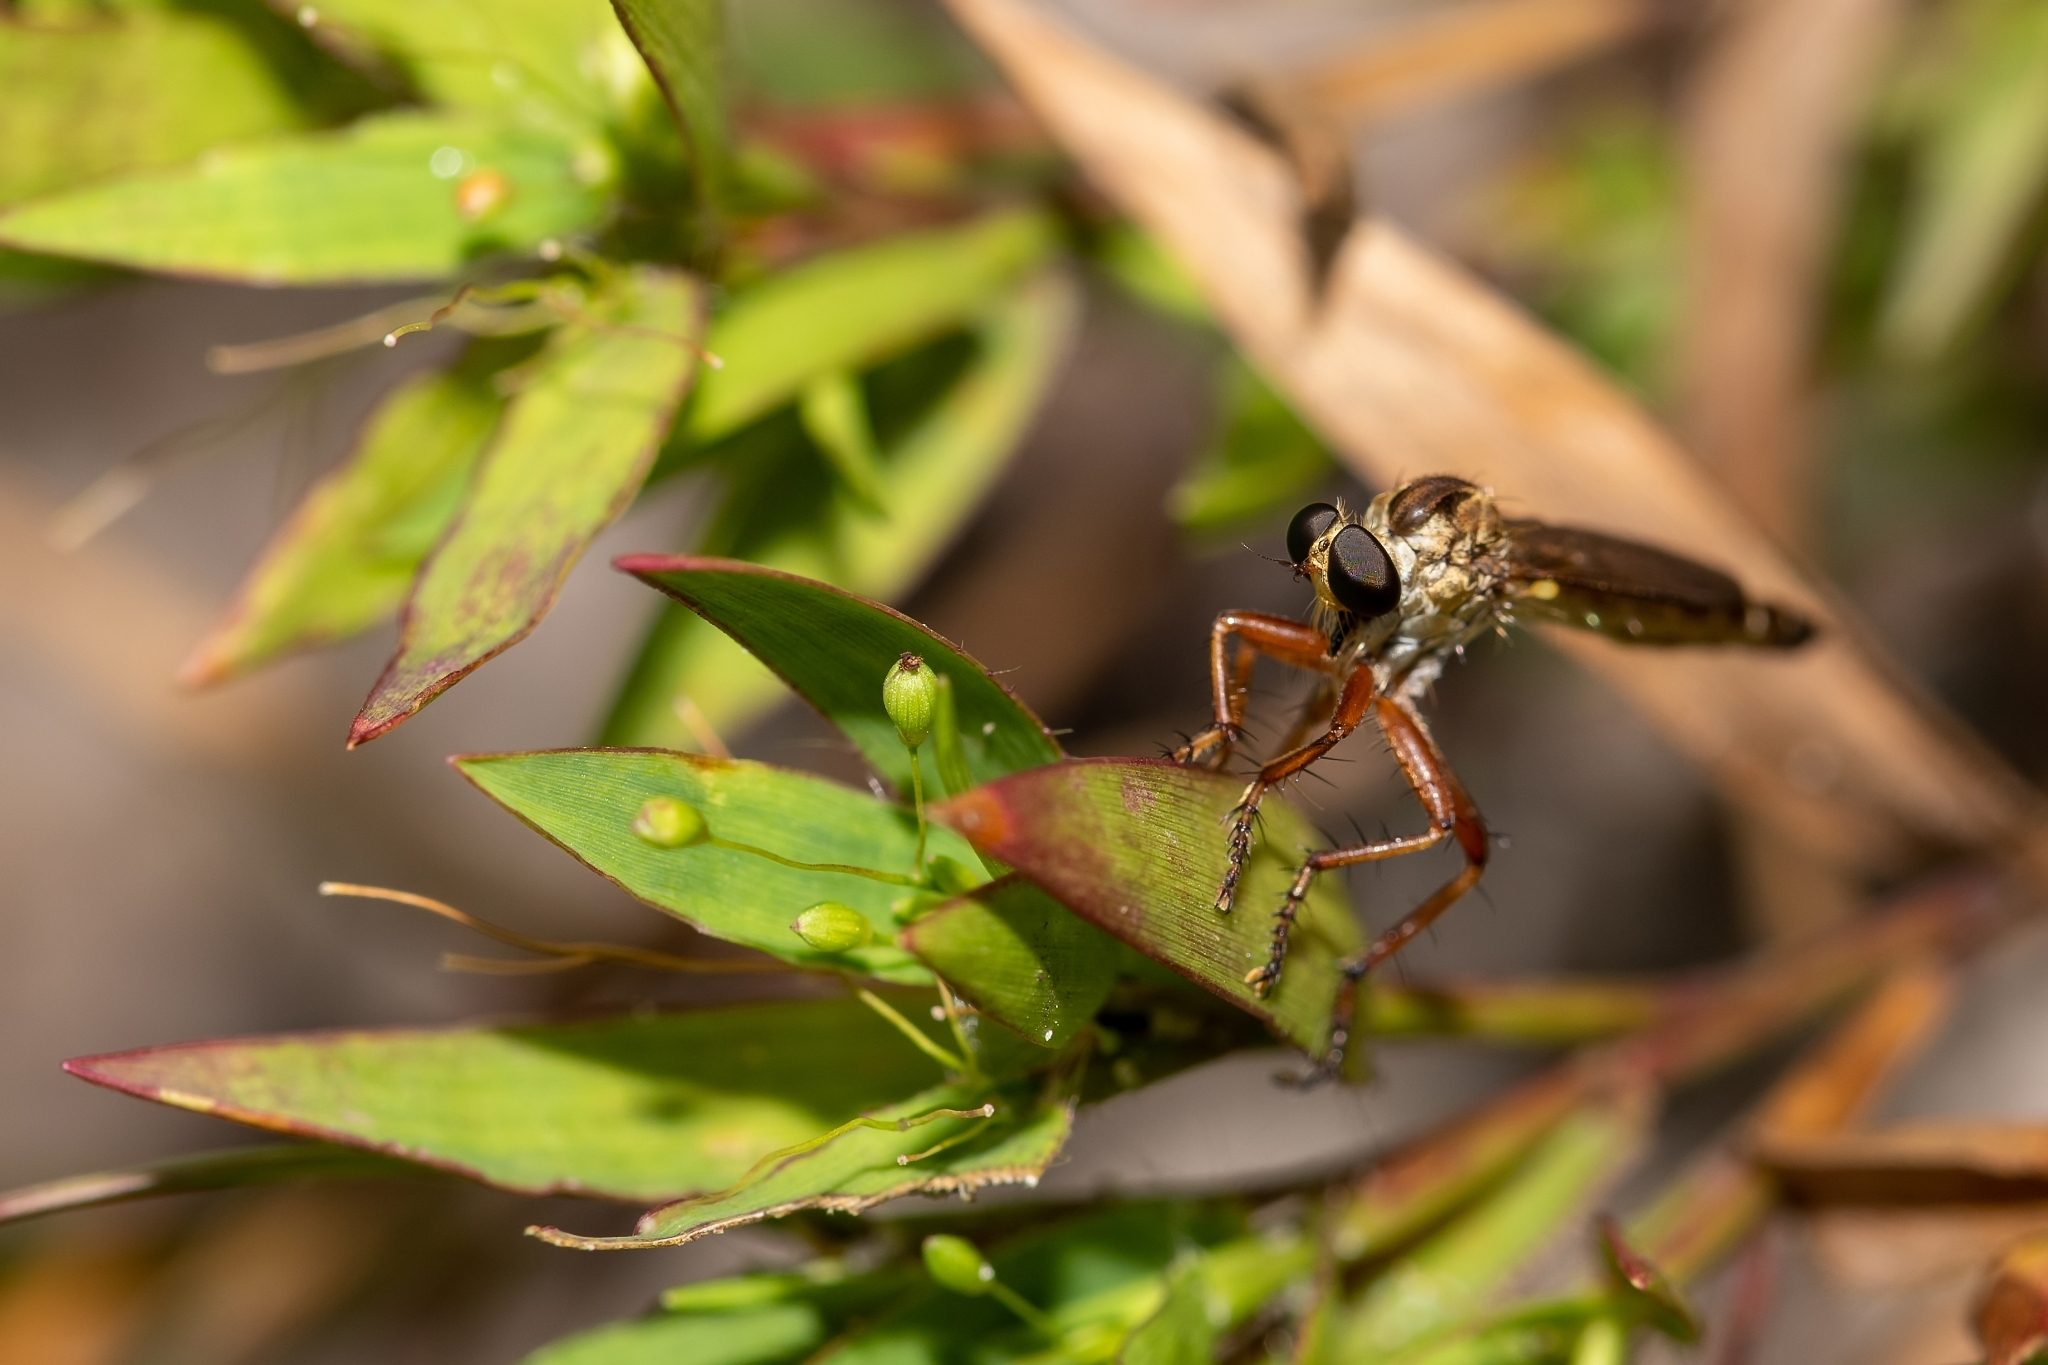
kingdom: Animalia
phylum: Arthropoda
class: Insecta
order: Diptera
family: Asilidae
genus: Polacantha
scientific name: Polacantha gracilis
